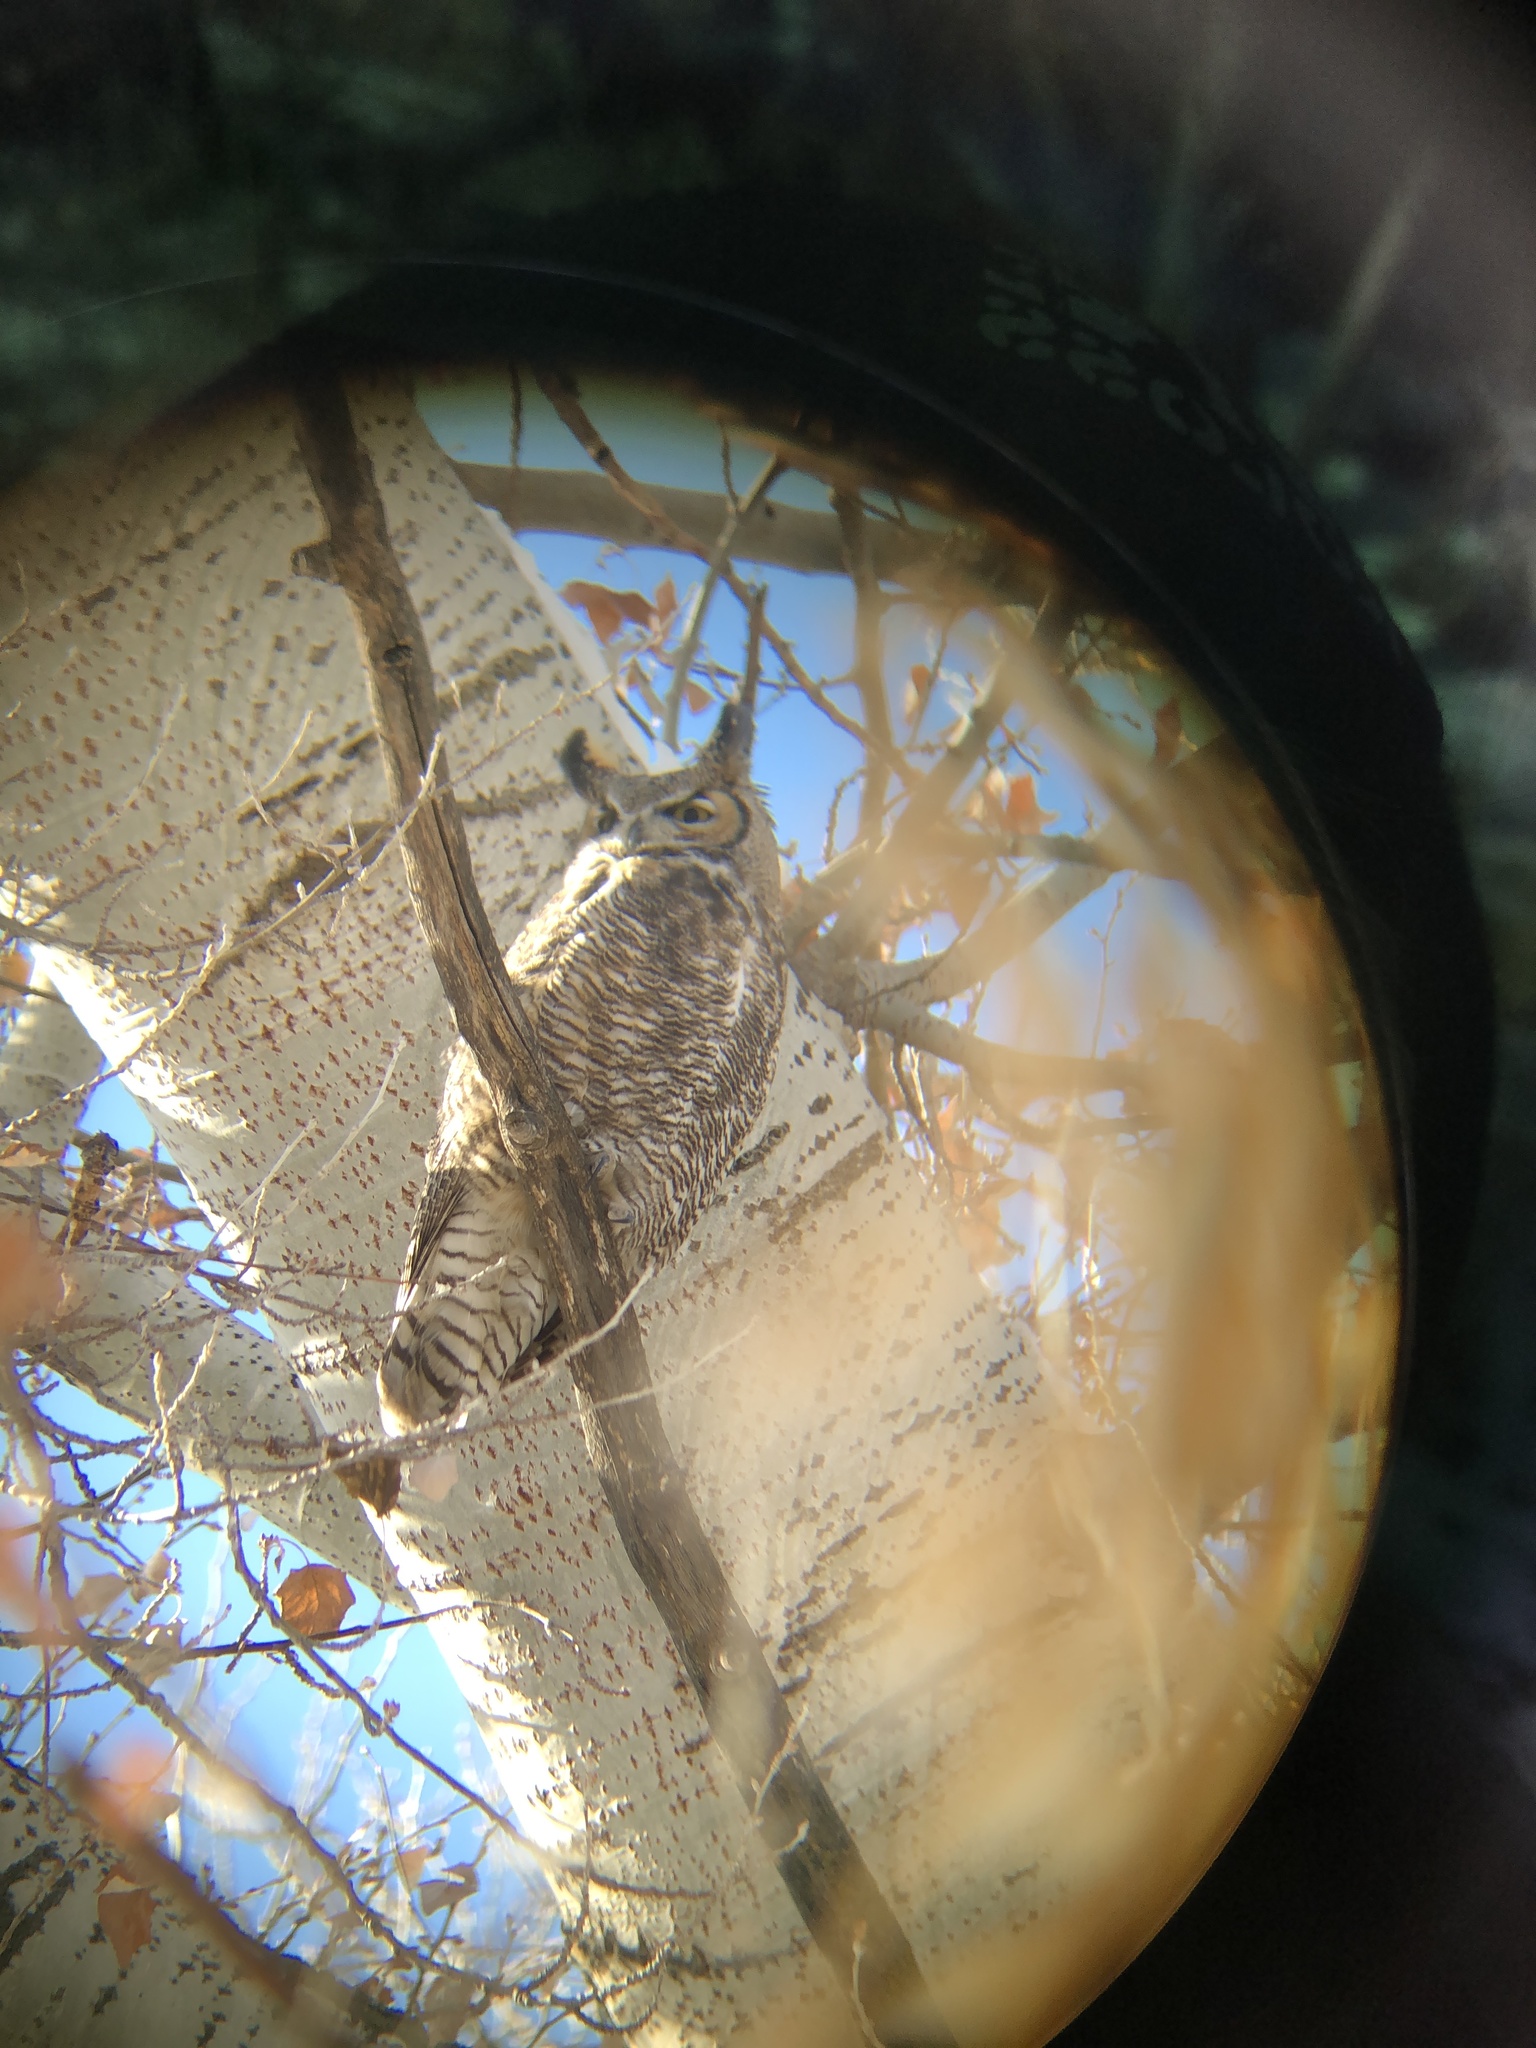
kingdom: Animalia
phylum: Chordata
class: Aves
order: Strigiformes
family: Strigidae
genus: Bubo
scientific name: Bubo virginianus
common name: Great horned owl
